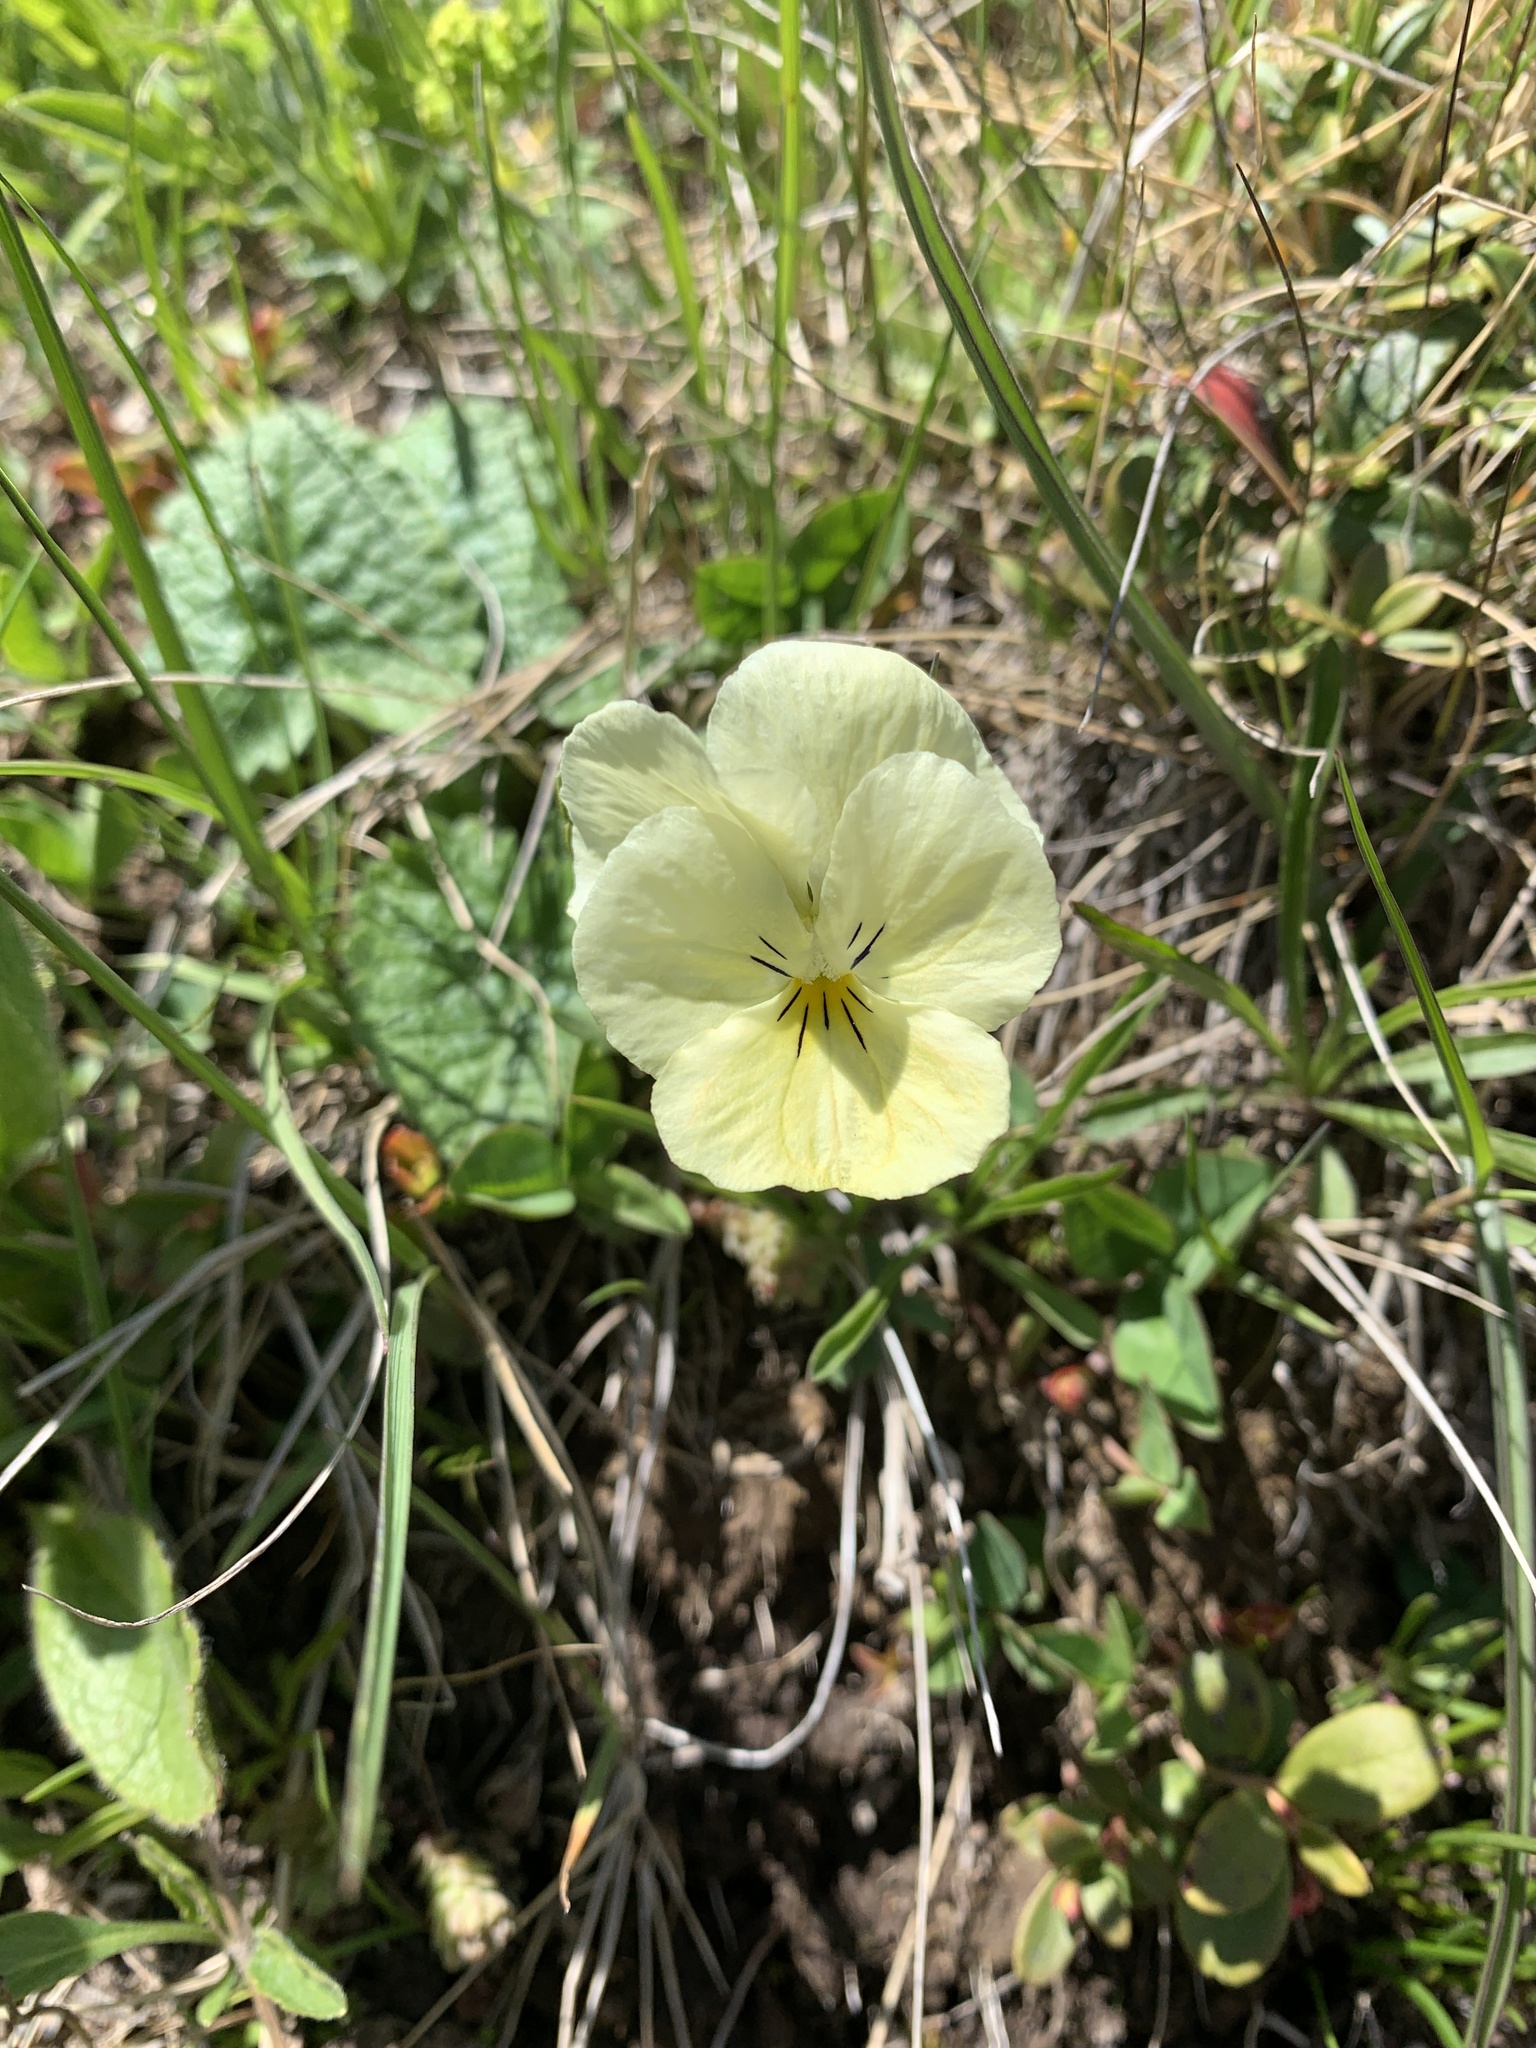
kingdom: Plantae
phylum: Tracheophyta
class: Magnoliopsida
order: Malpighiales
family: Violaceae
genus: Viola
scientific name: Viola oreades
